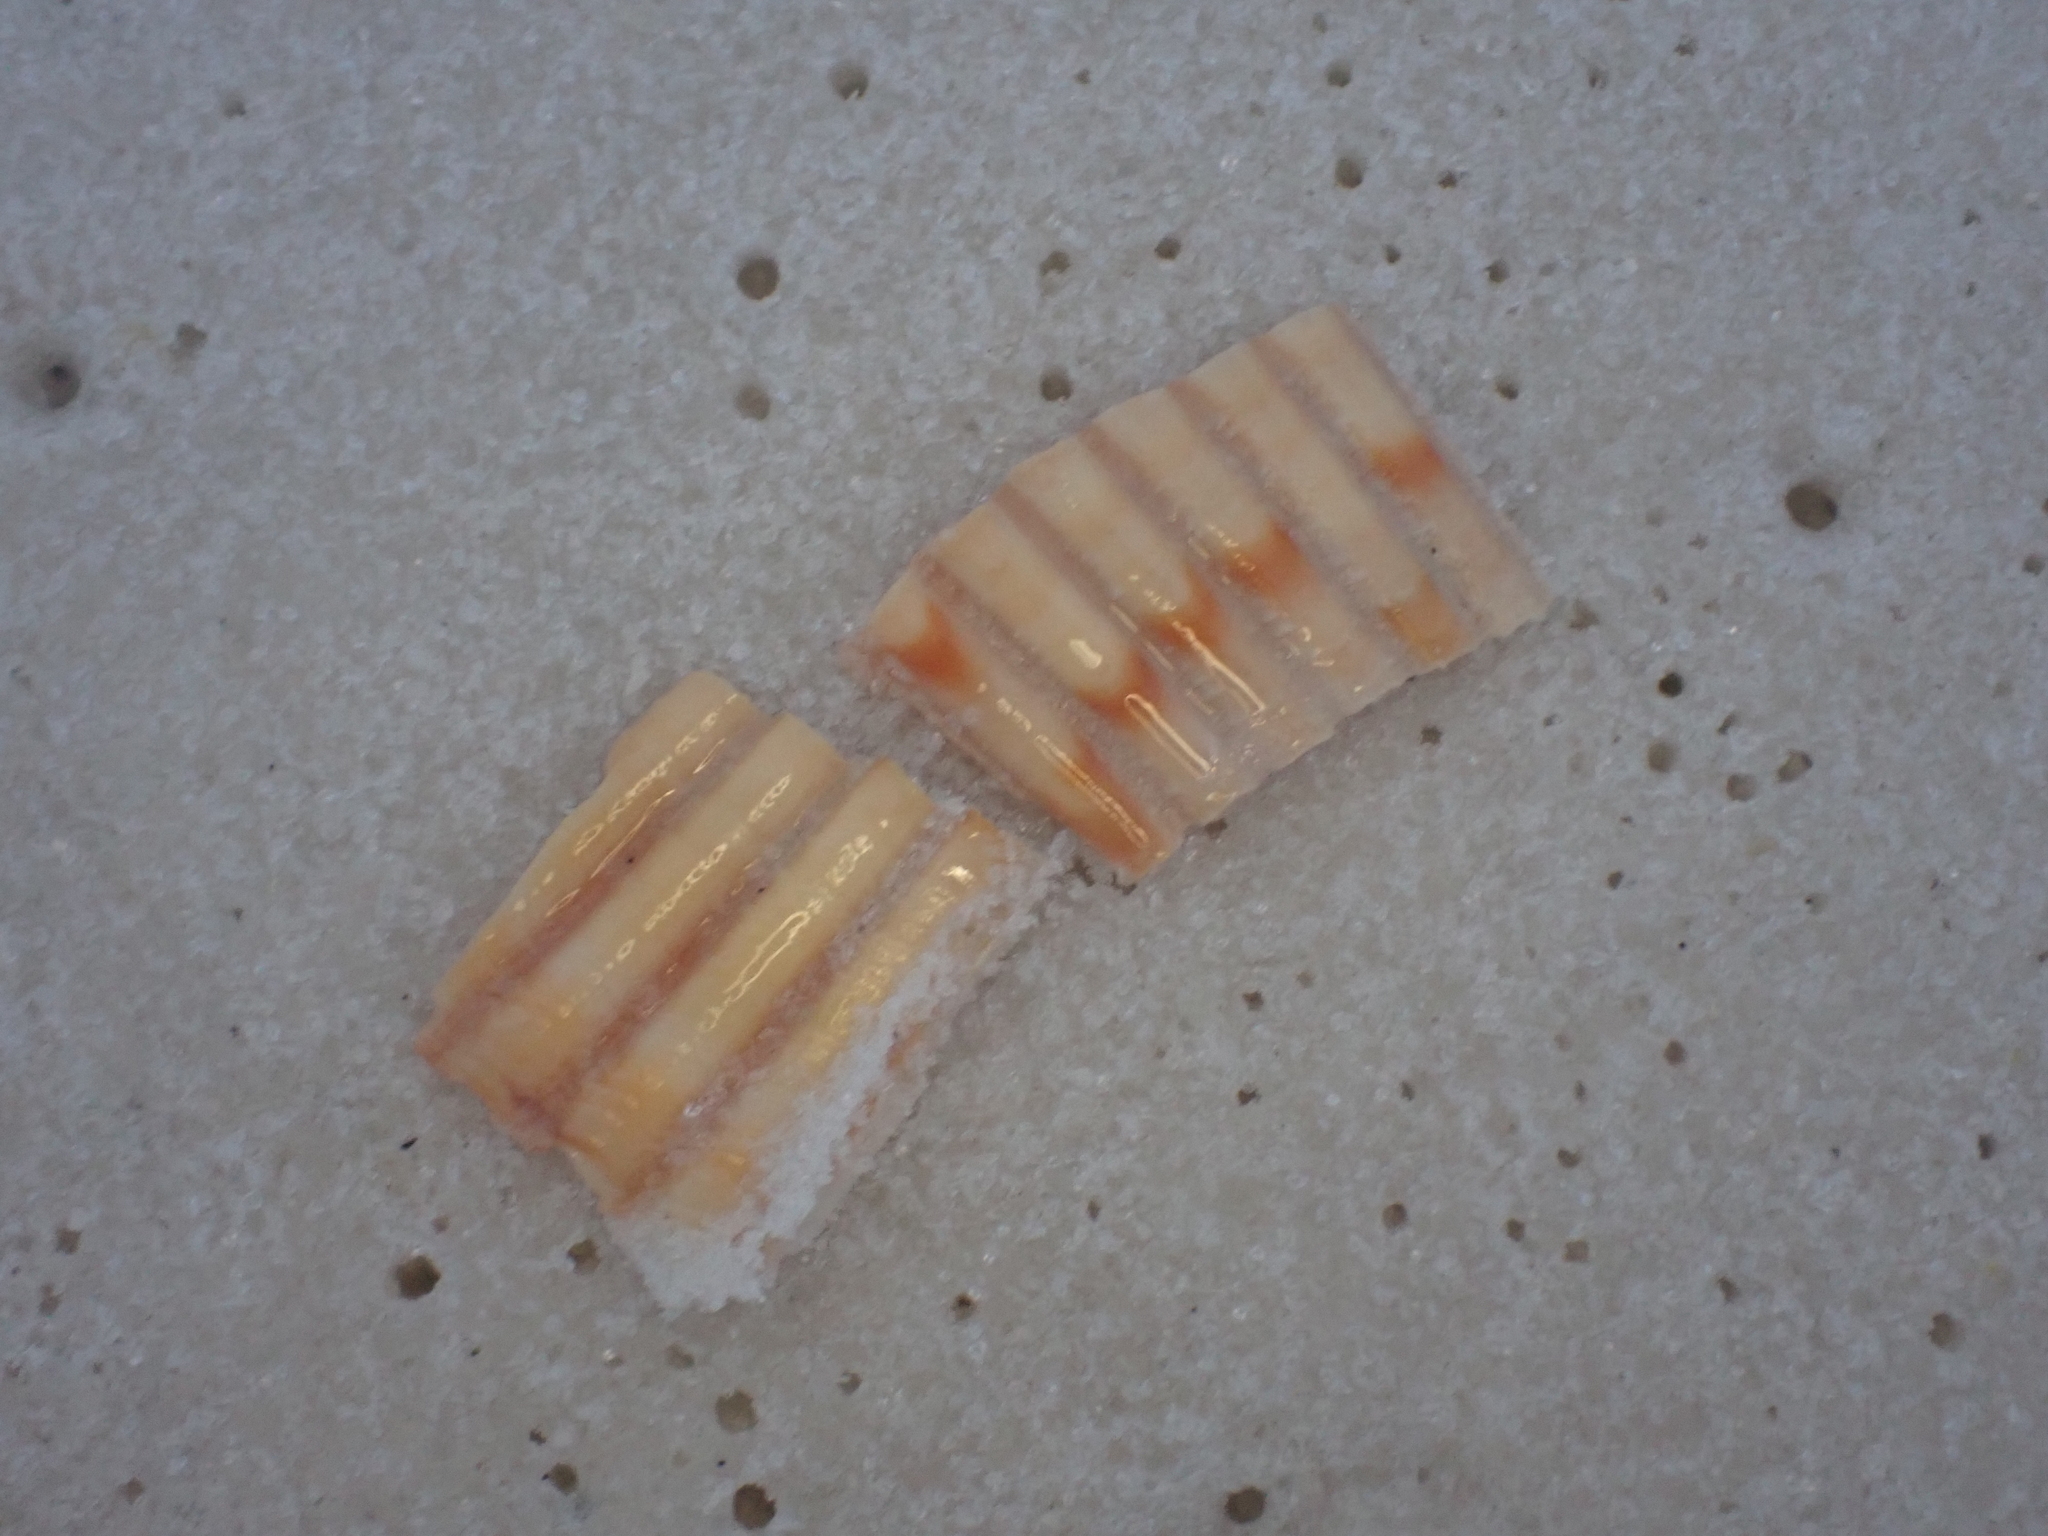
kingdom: Animalia
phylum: Mollusca
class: Bivalvia
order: Cardiida
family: Cardiidae
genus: Dinocardium
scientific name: Dinocardium robustum
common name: Atlantic giant cockle
